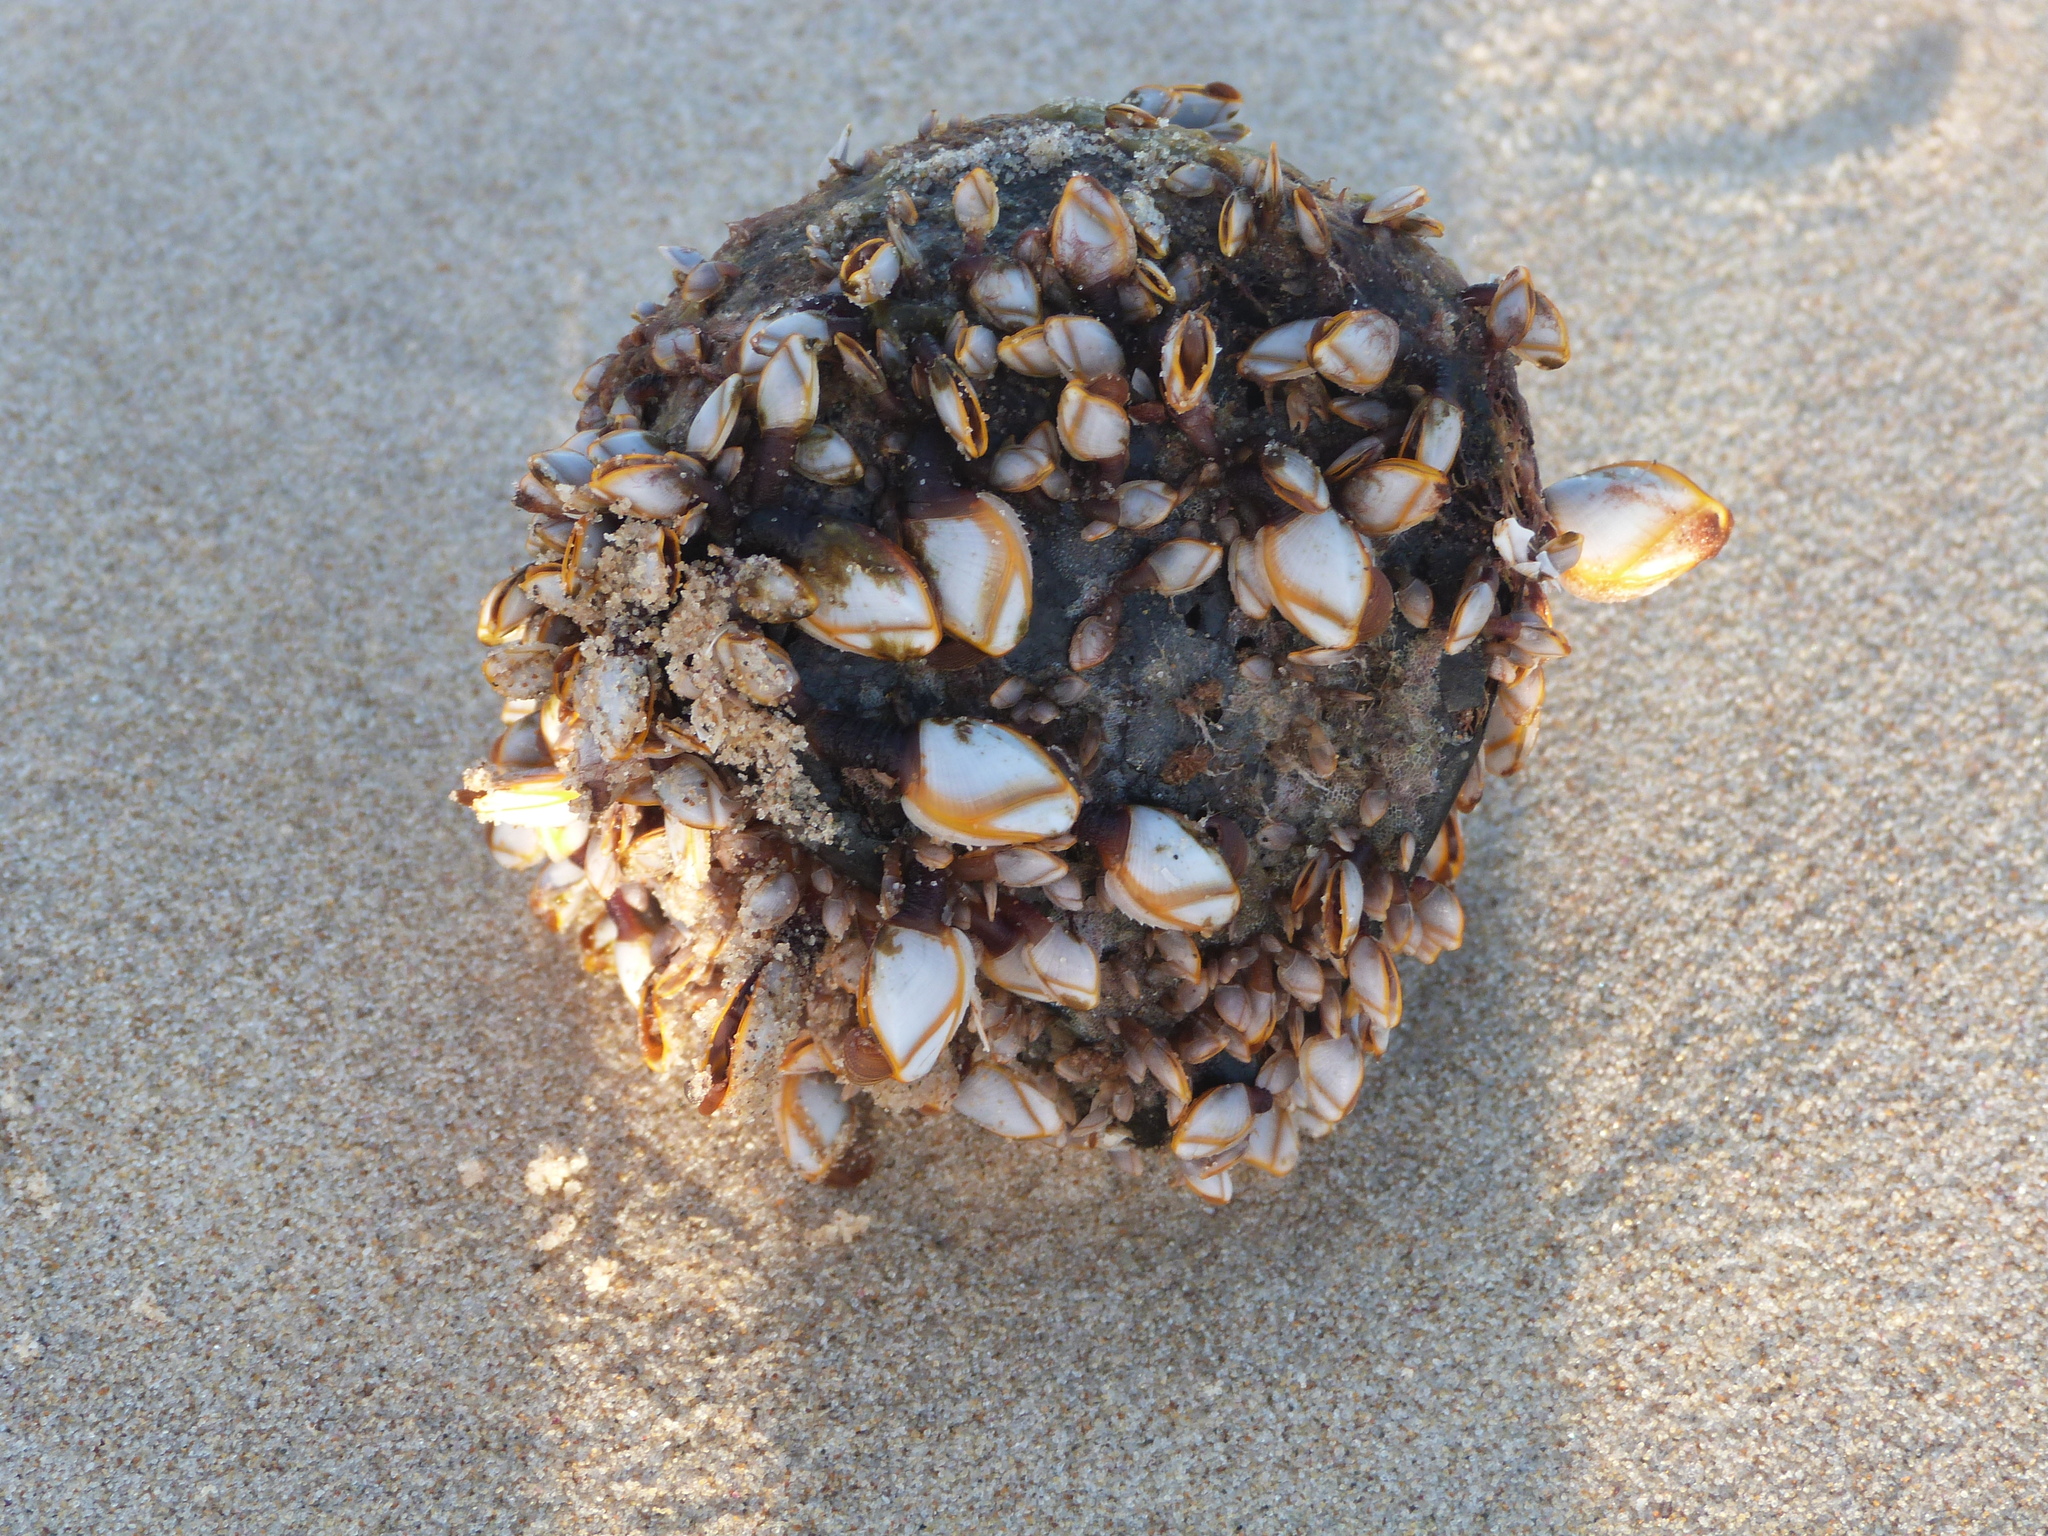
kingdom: Animalia
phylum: Arthropoda
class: Maxillopoda
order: Pedunculata
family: Lepadidae
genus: Lepas
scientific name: Lepas anserifera
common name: Goose barnacle
